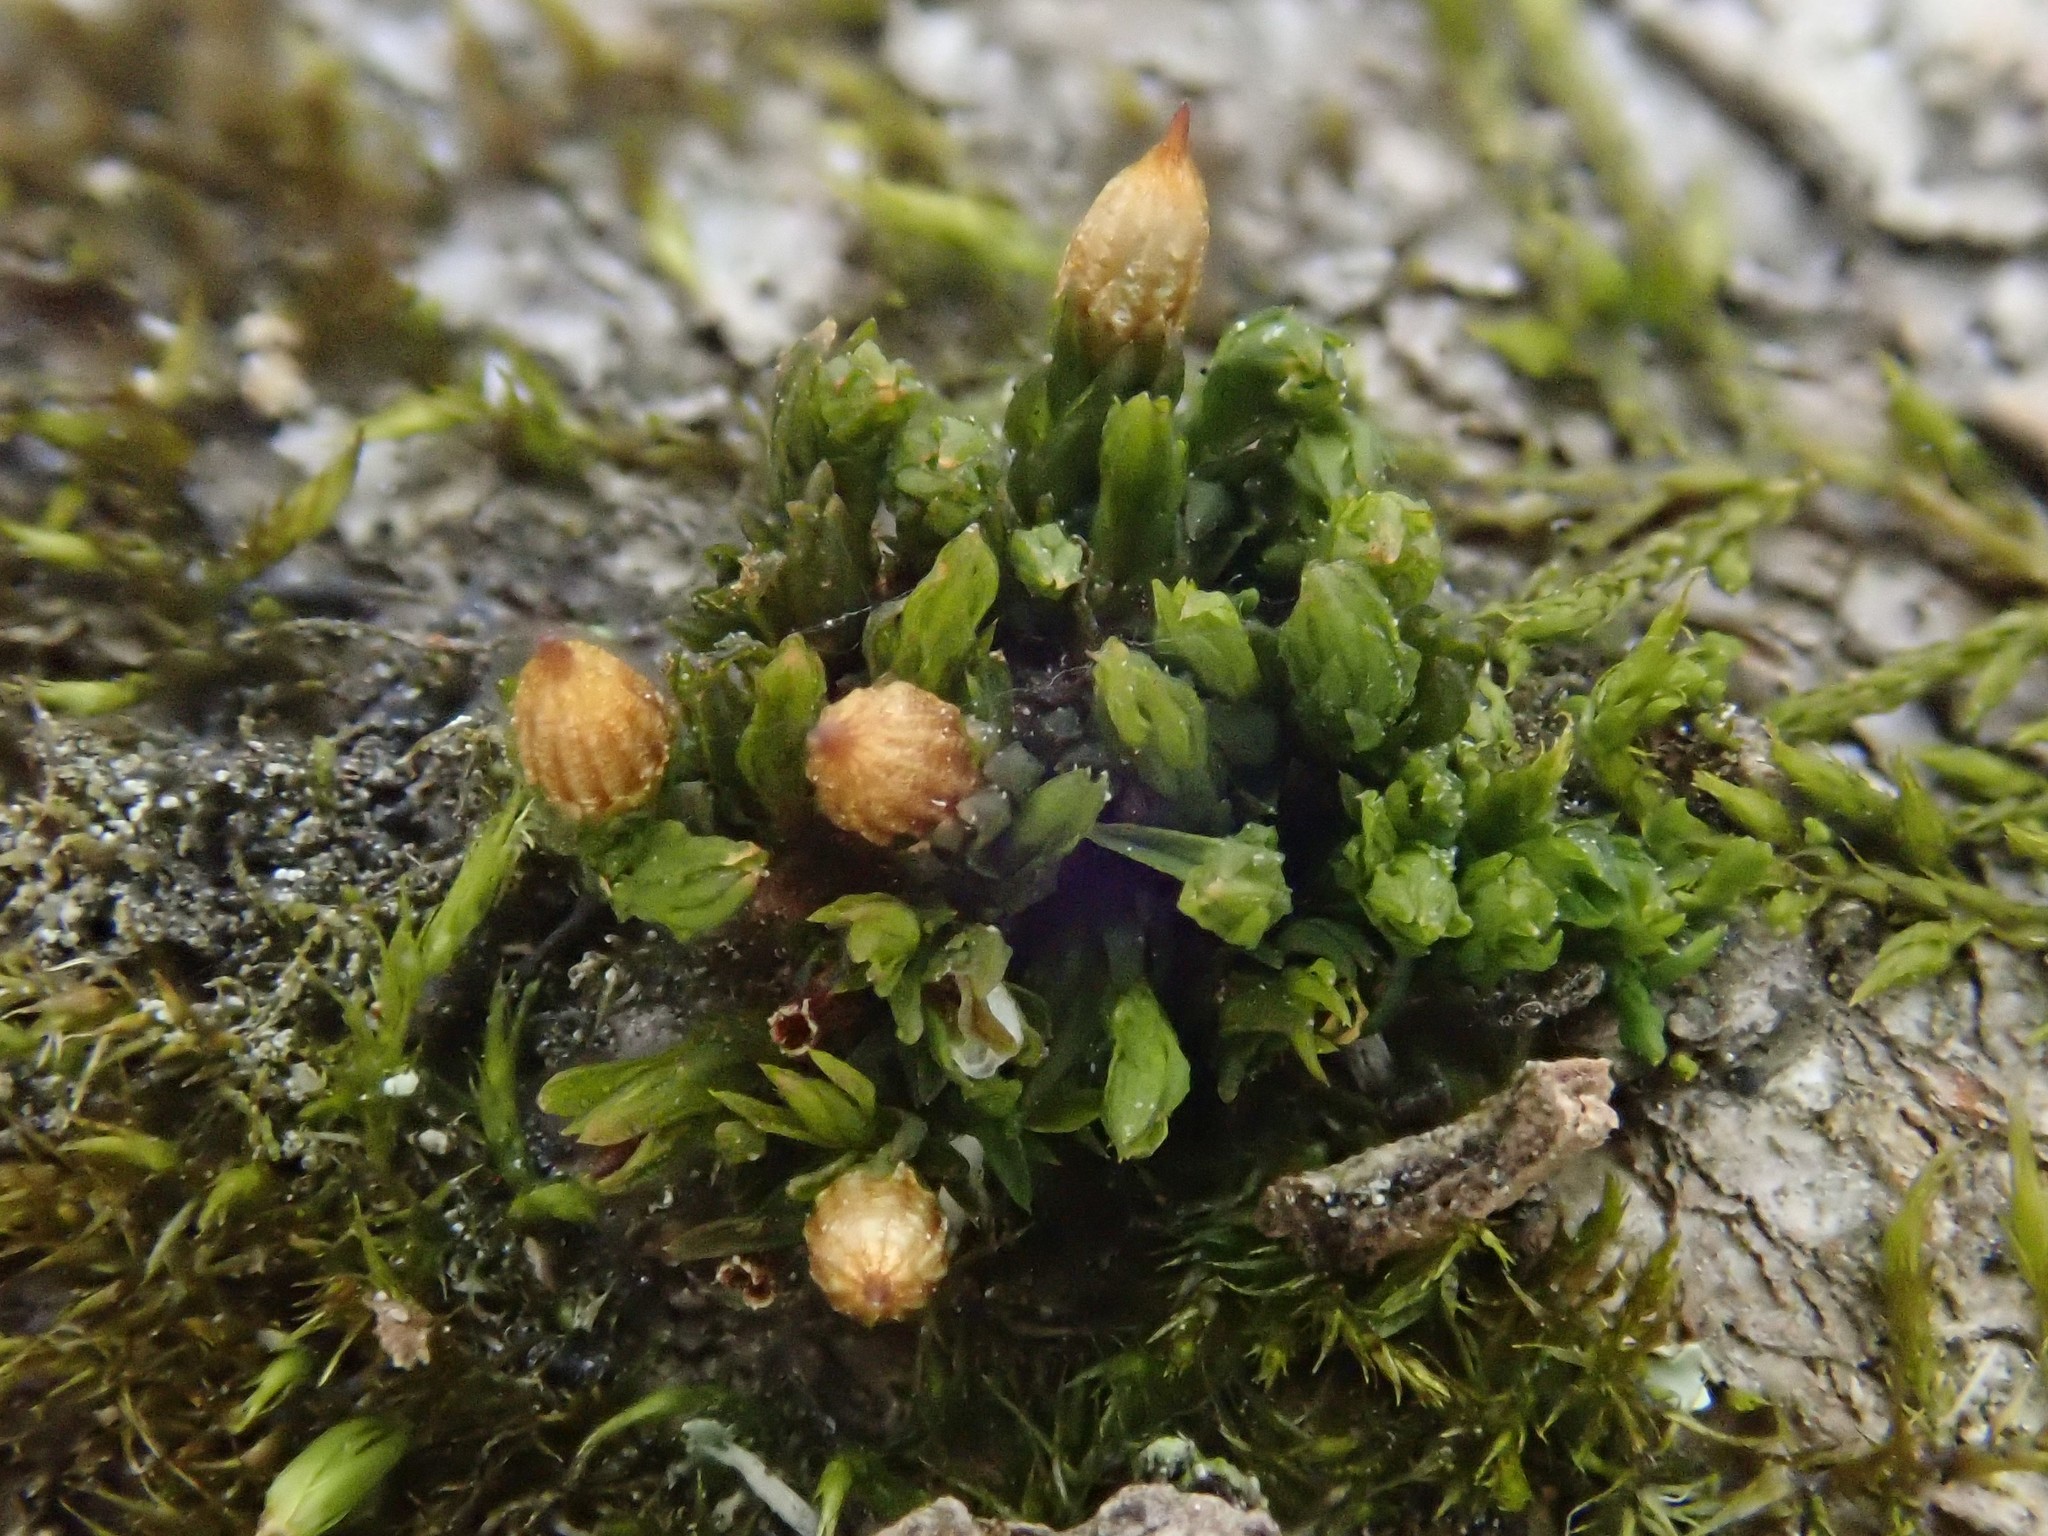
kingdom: Plantae
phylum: Bryophyta
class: Bryopsida
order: Orthotrichales
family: Orthotrichaceae
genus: Orthotrichum
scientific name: Orthotrichum pumilum
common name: Dwarf bristle moss
